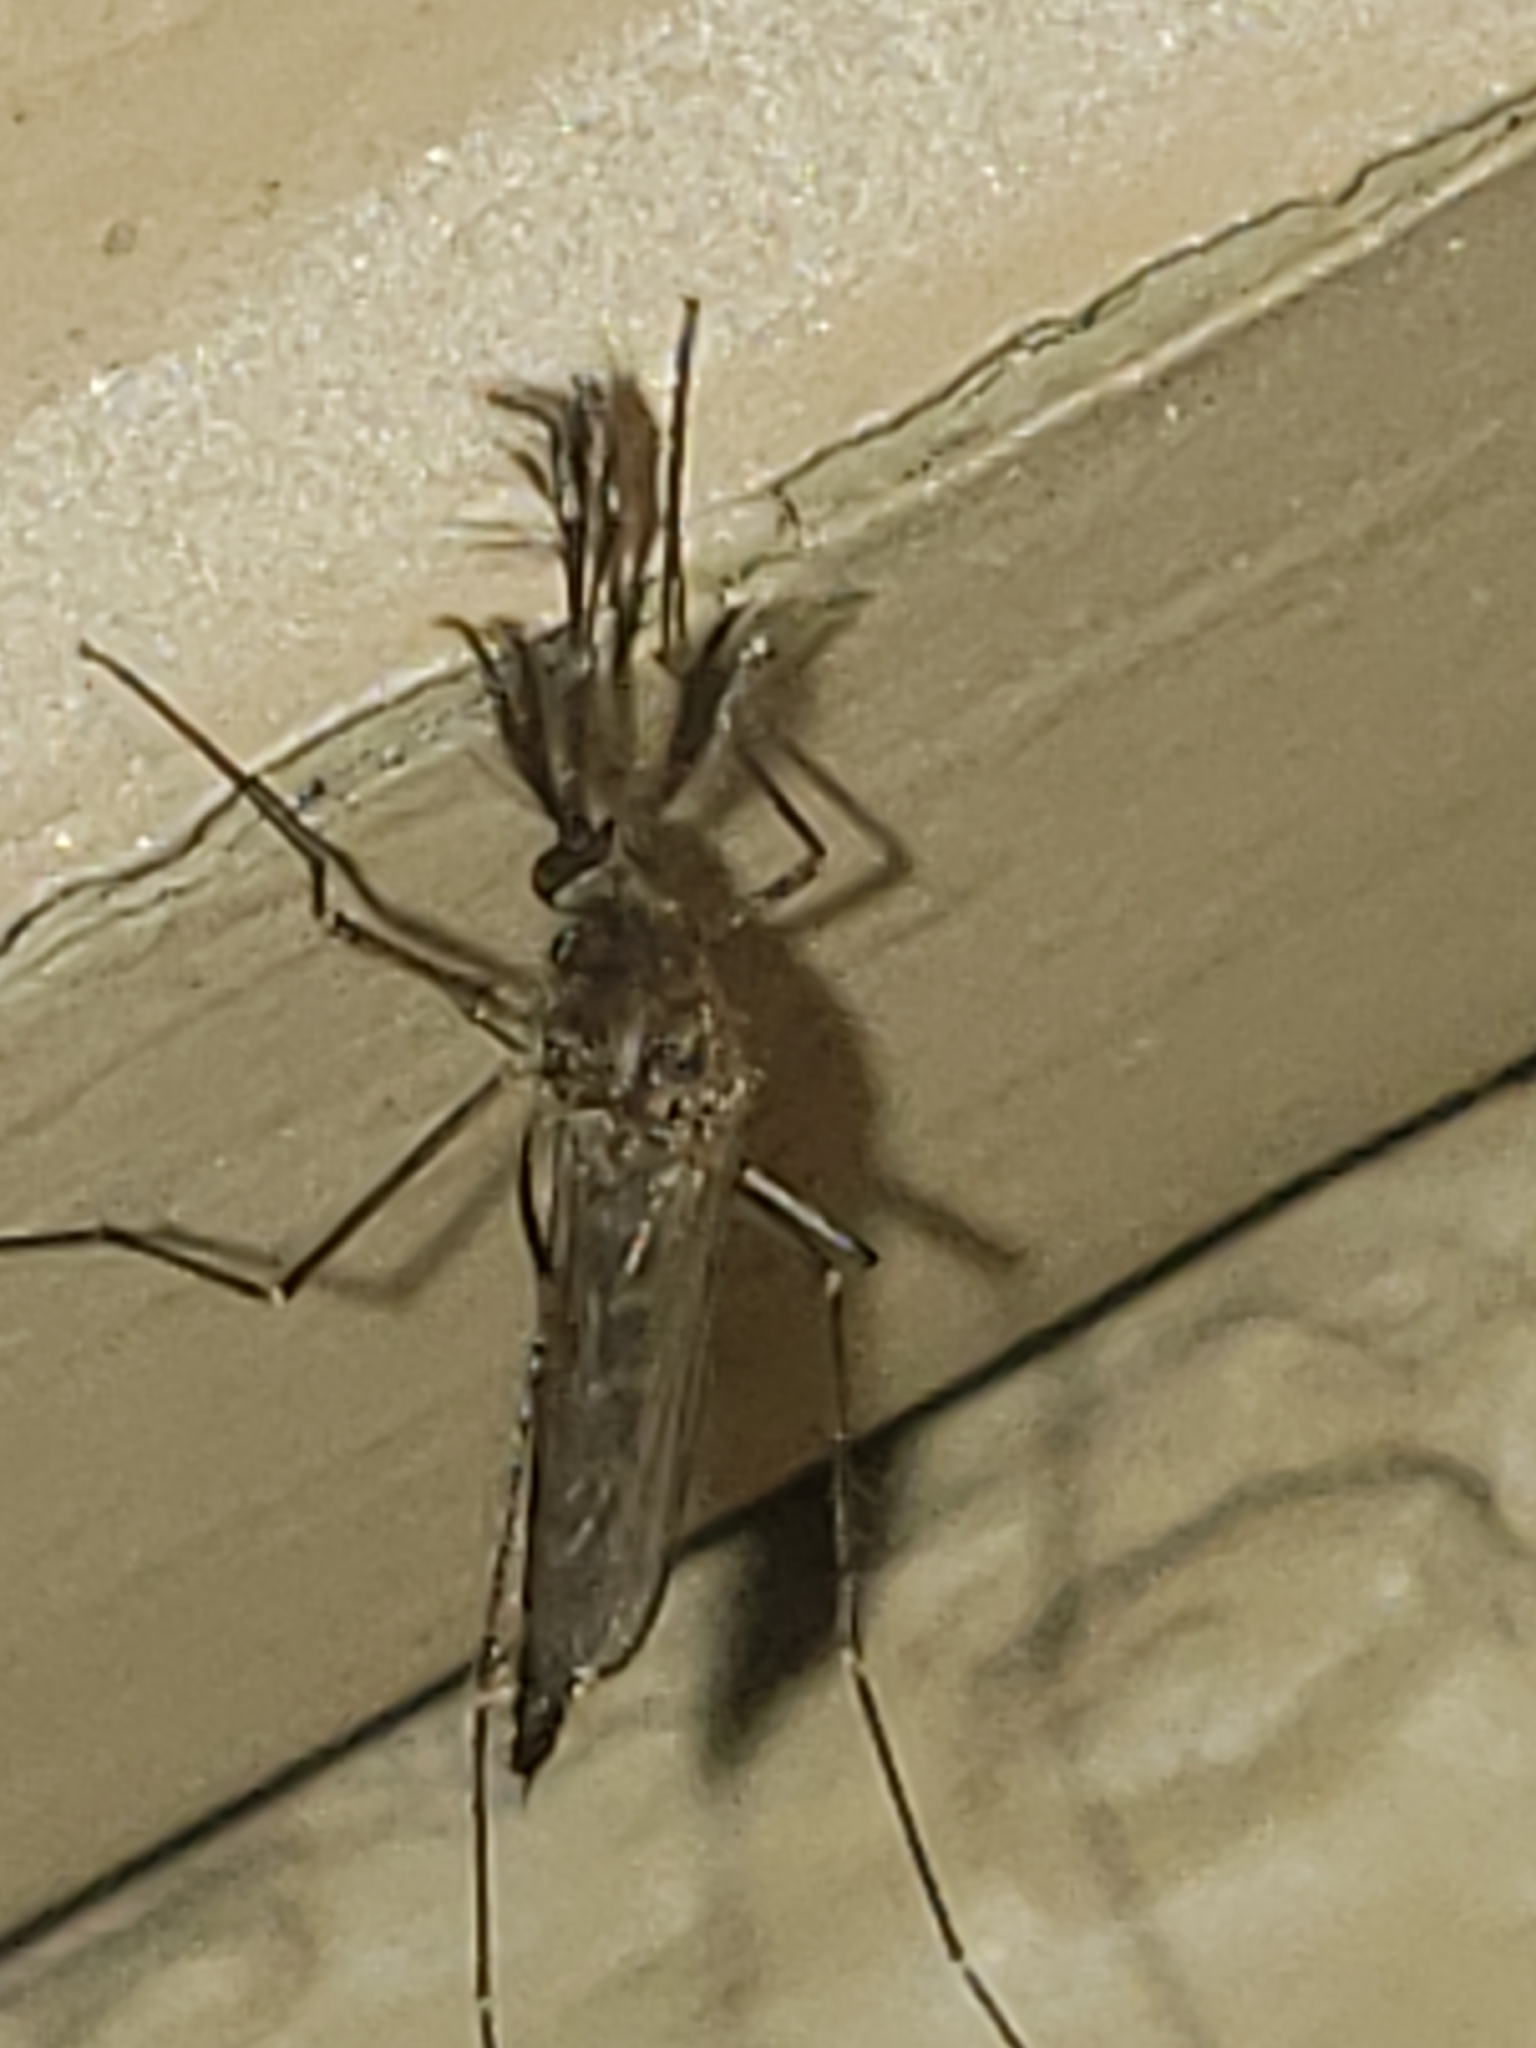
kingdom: Animalia
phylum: Arthropoda
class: Insecta
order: Diptera
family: Culicidae
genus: Aedes
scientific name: Aedes vexans
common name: Inland floodwater mosquito
